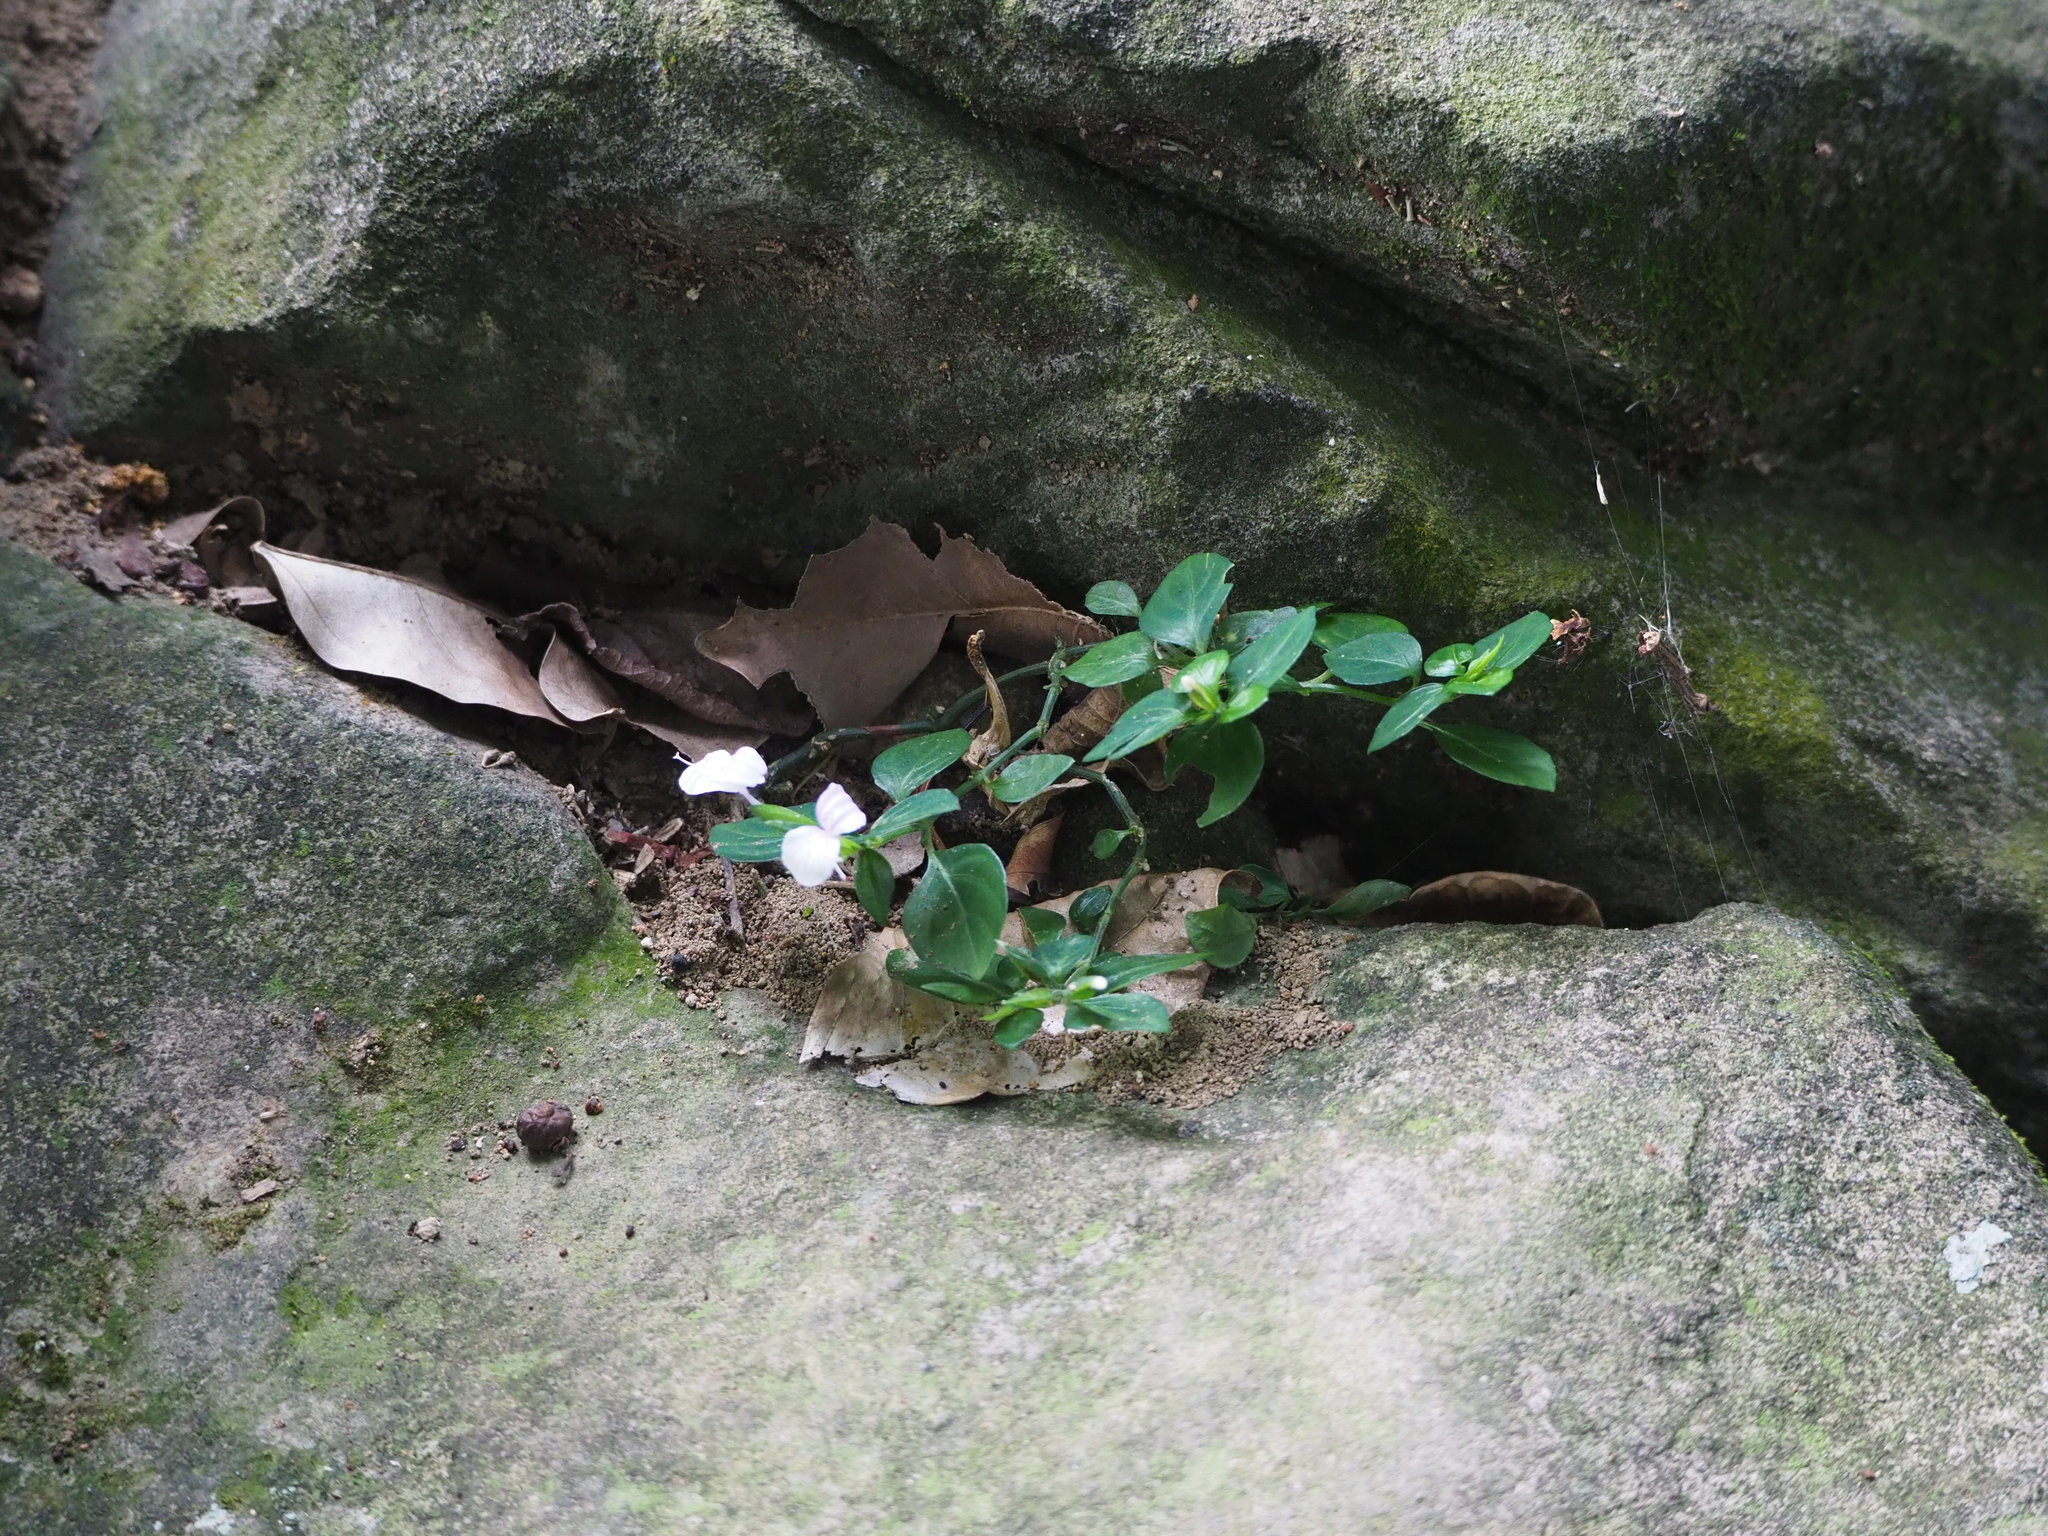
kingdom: Plantae
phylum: Tracheophyta
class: Magnoliopsida
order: Lamiales
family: Acanthaceae
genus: Dicliptera
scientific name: Dicliptera japonica
